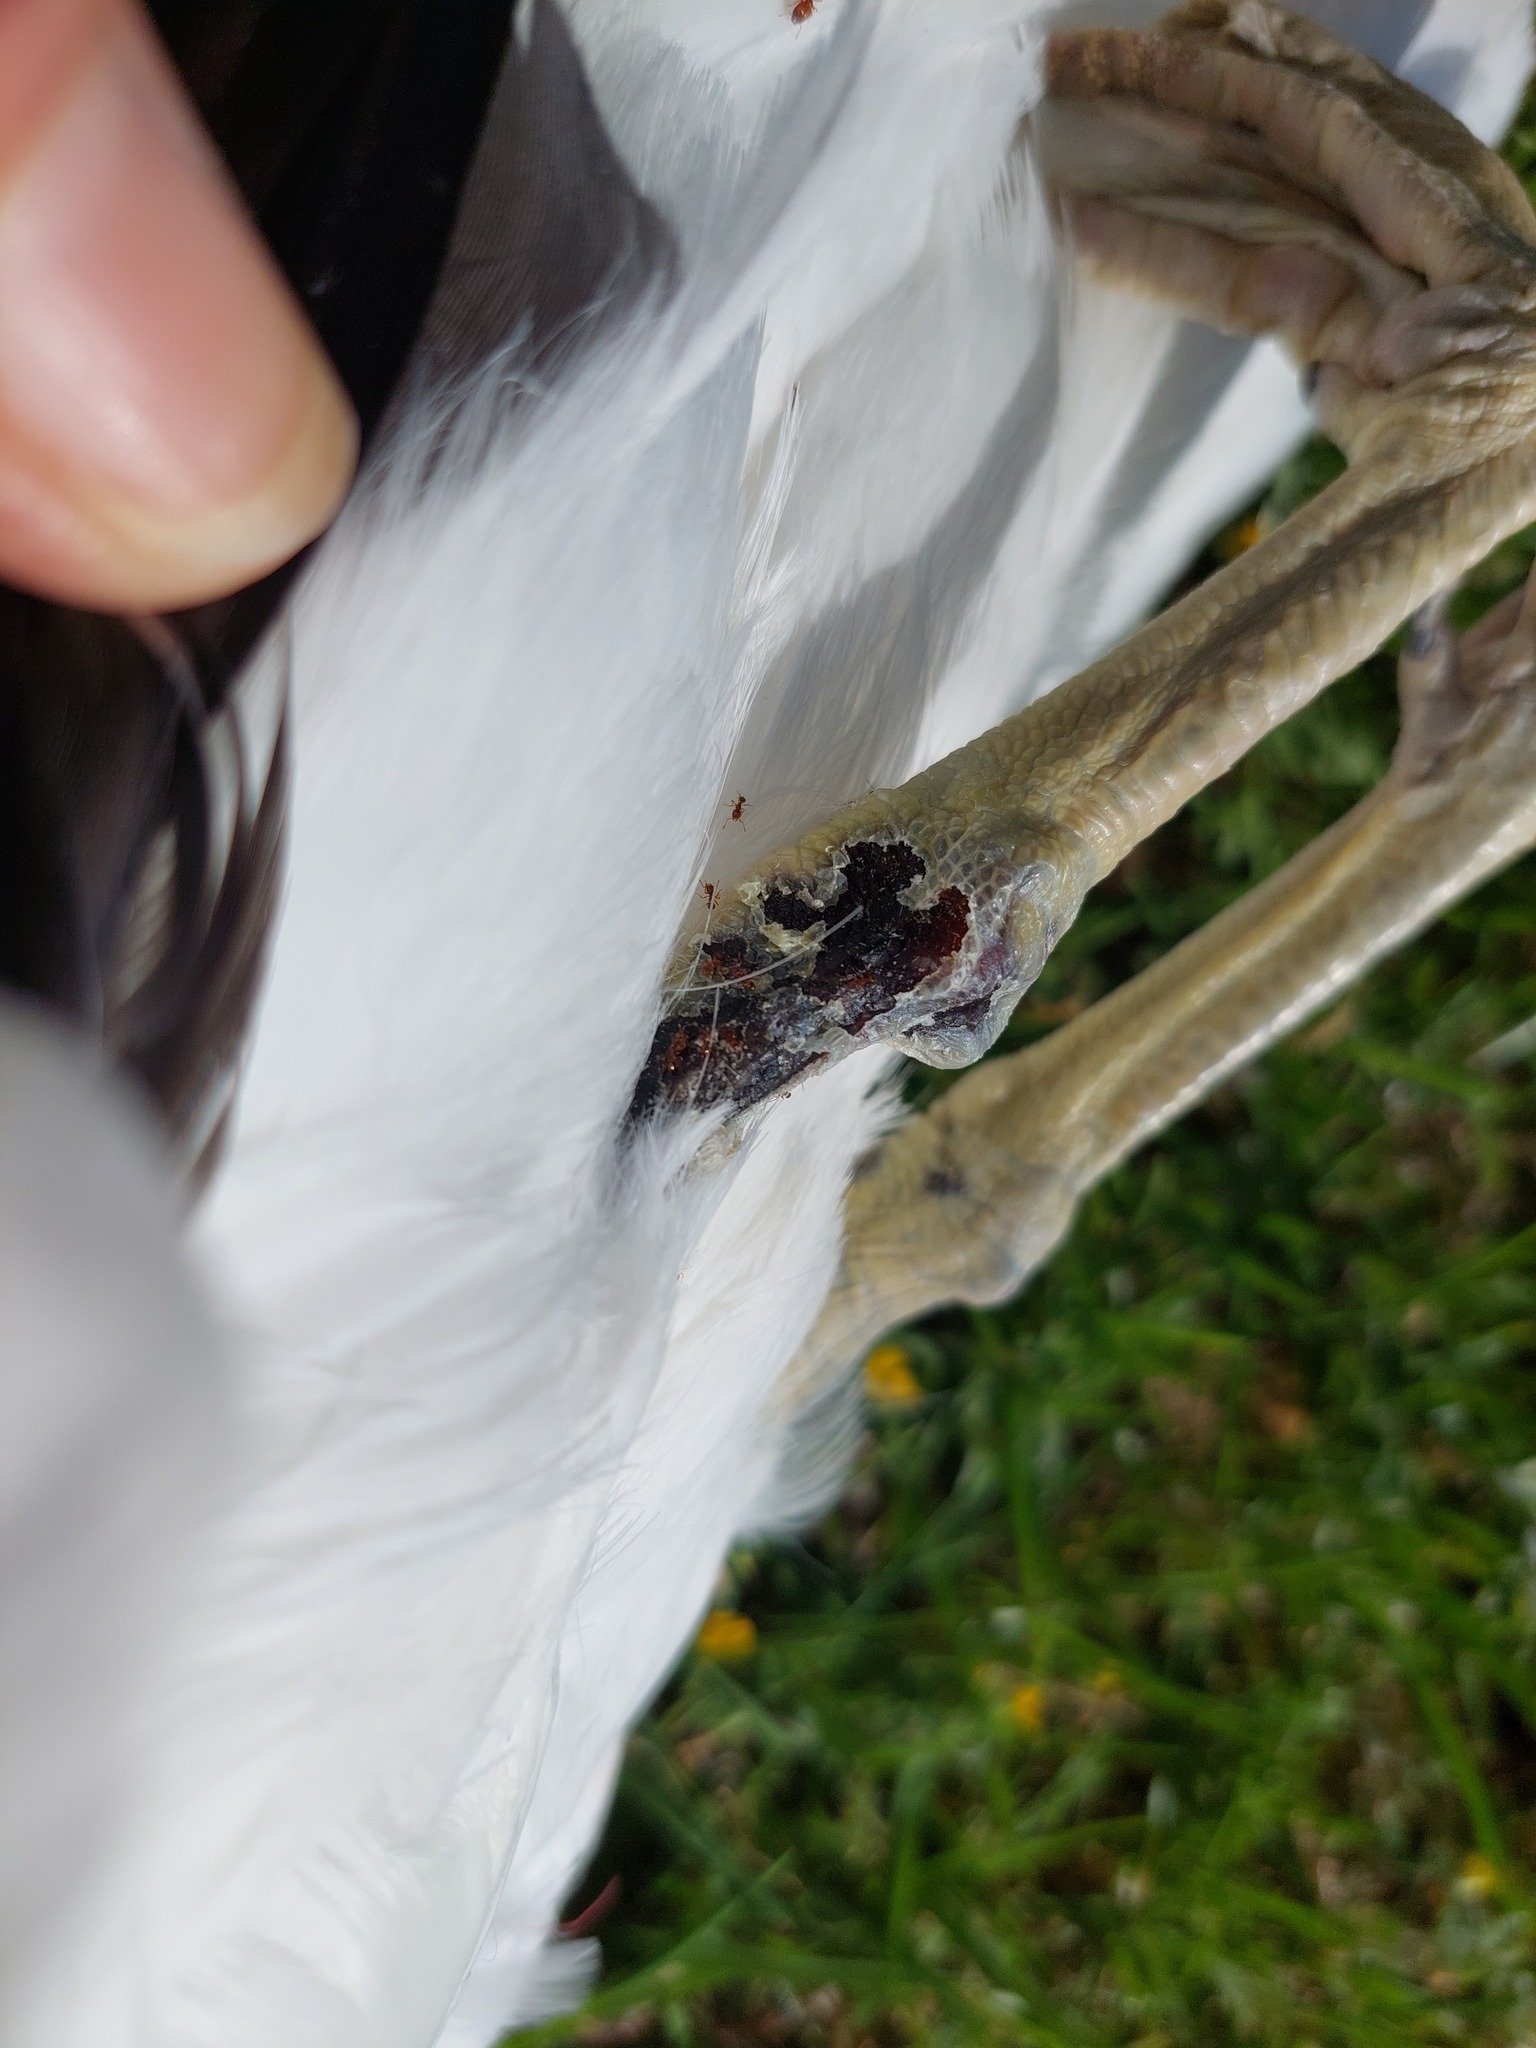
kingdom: Animalia
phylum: Chordata
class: Aves
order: Charadriiformes
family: Laridae
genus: Larus
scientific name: Larus dominicanus
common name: Kelp gull
